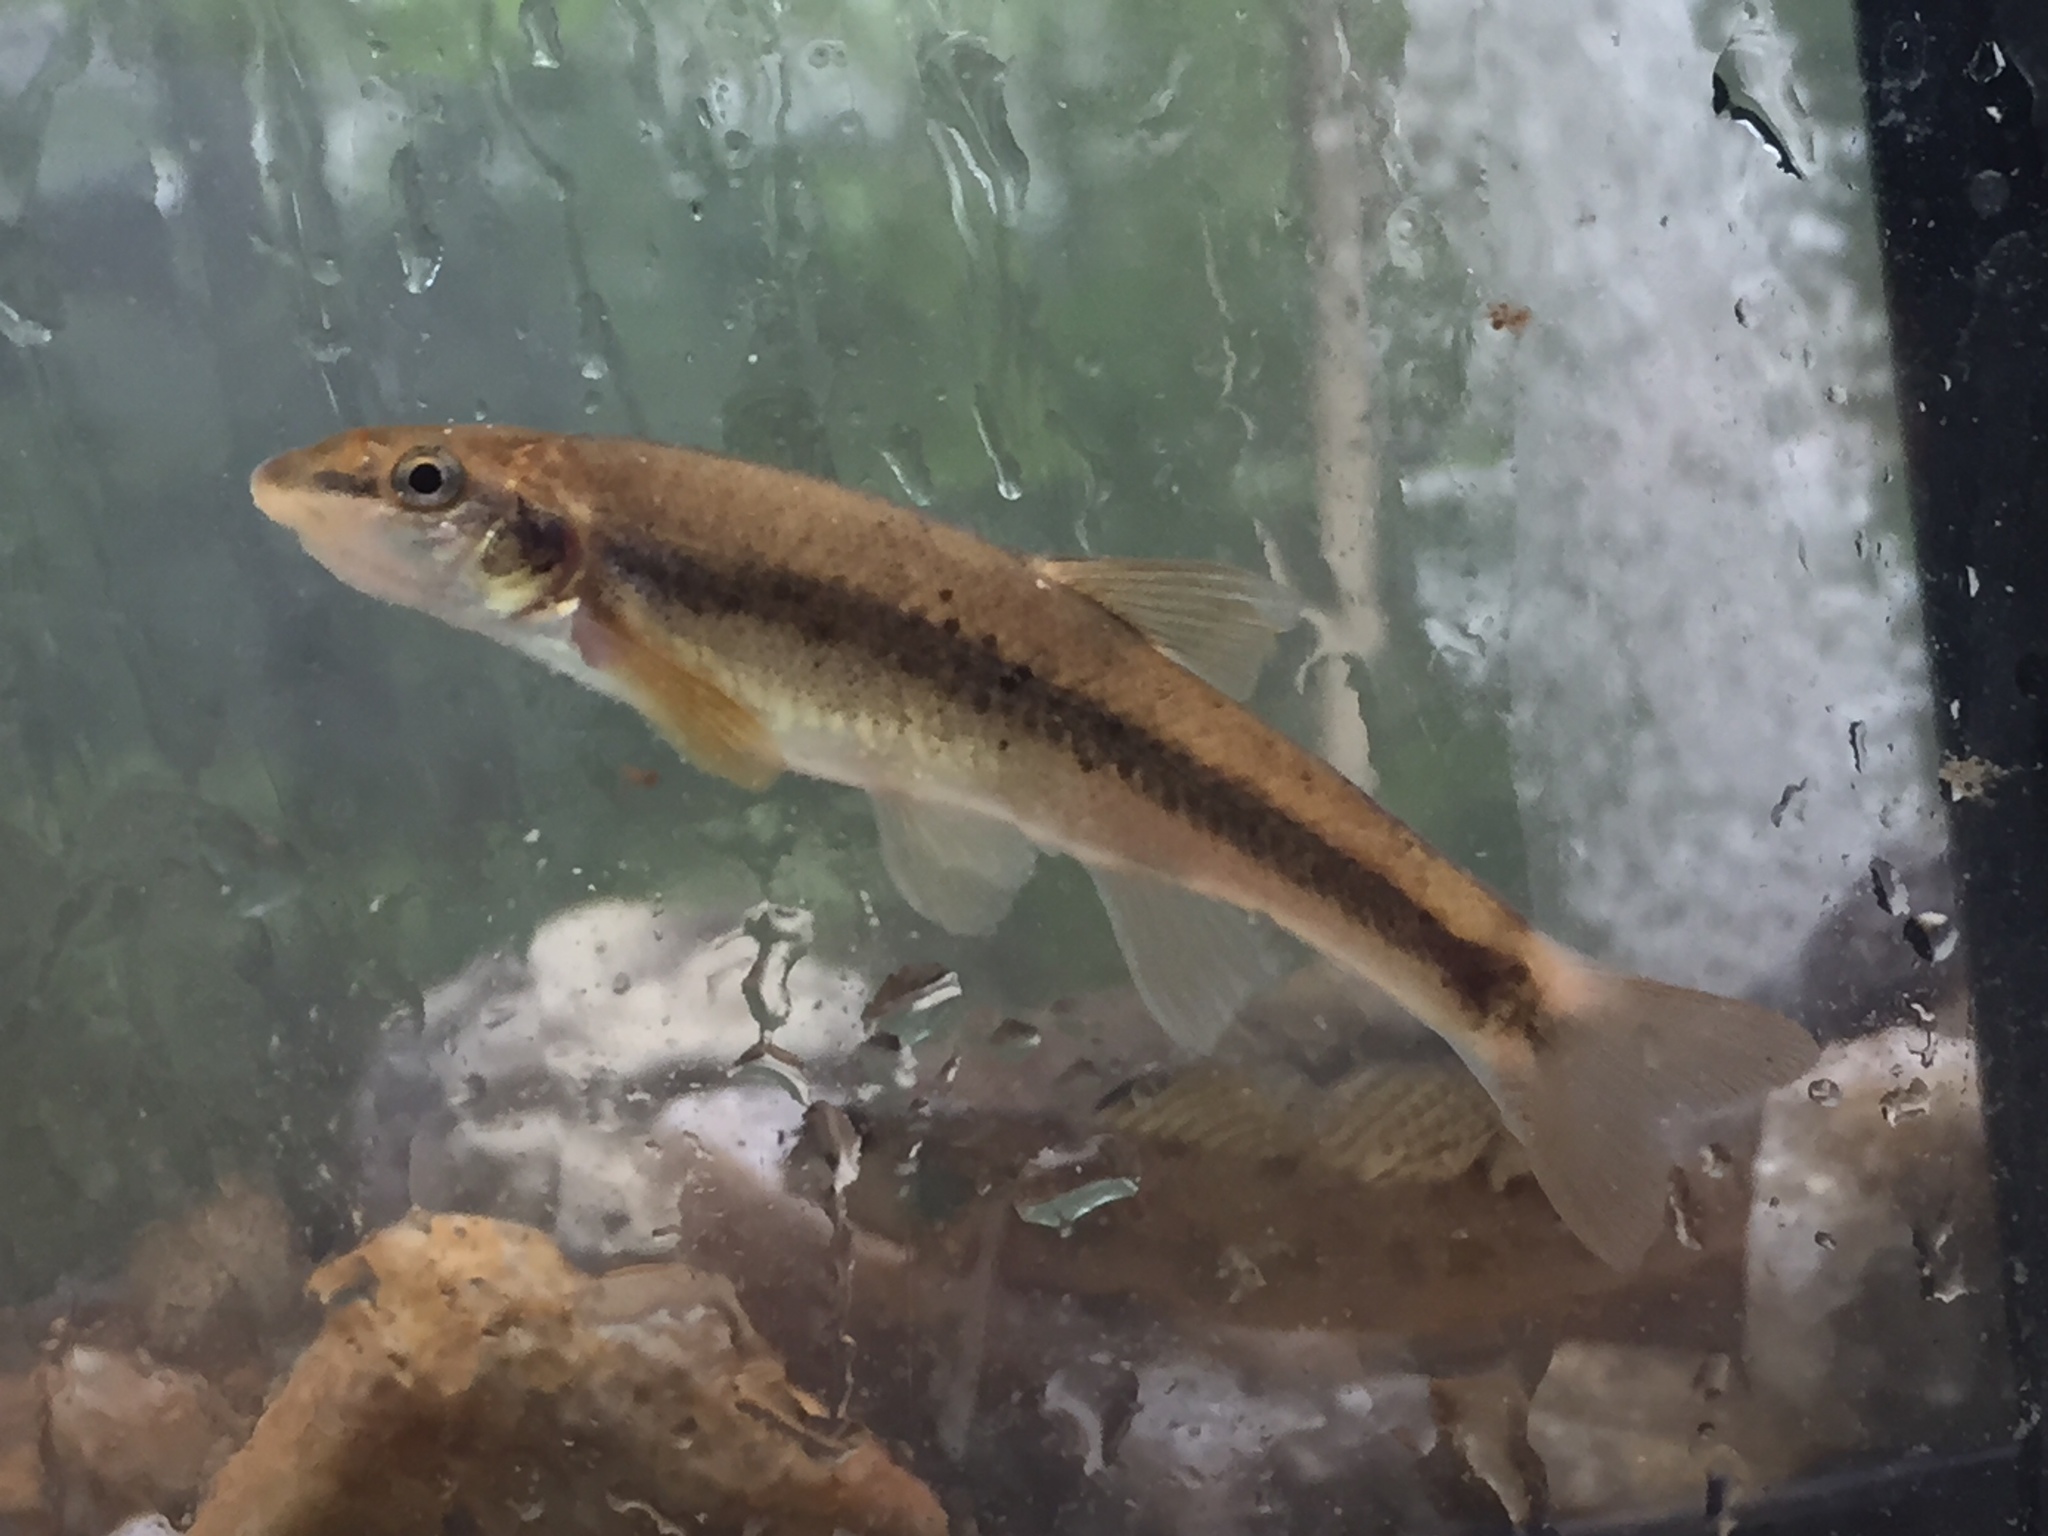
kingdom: Animalia
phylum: Chordata
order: Cypriniformes
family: Cyprinidae
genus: Rhinichthys
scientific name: Rhinichthys cataractae
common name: Longnose dace
